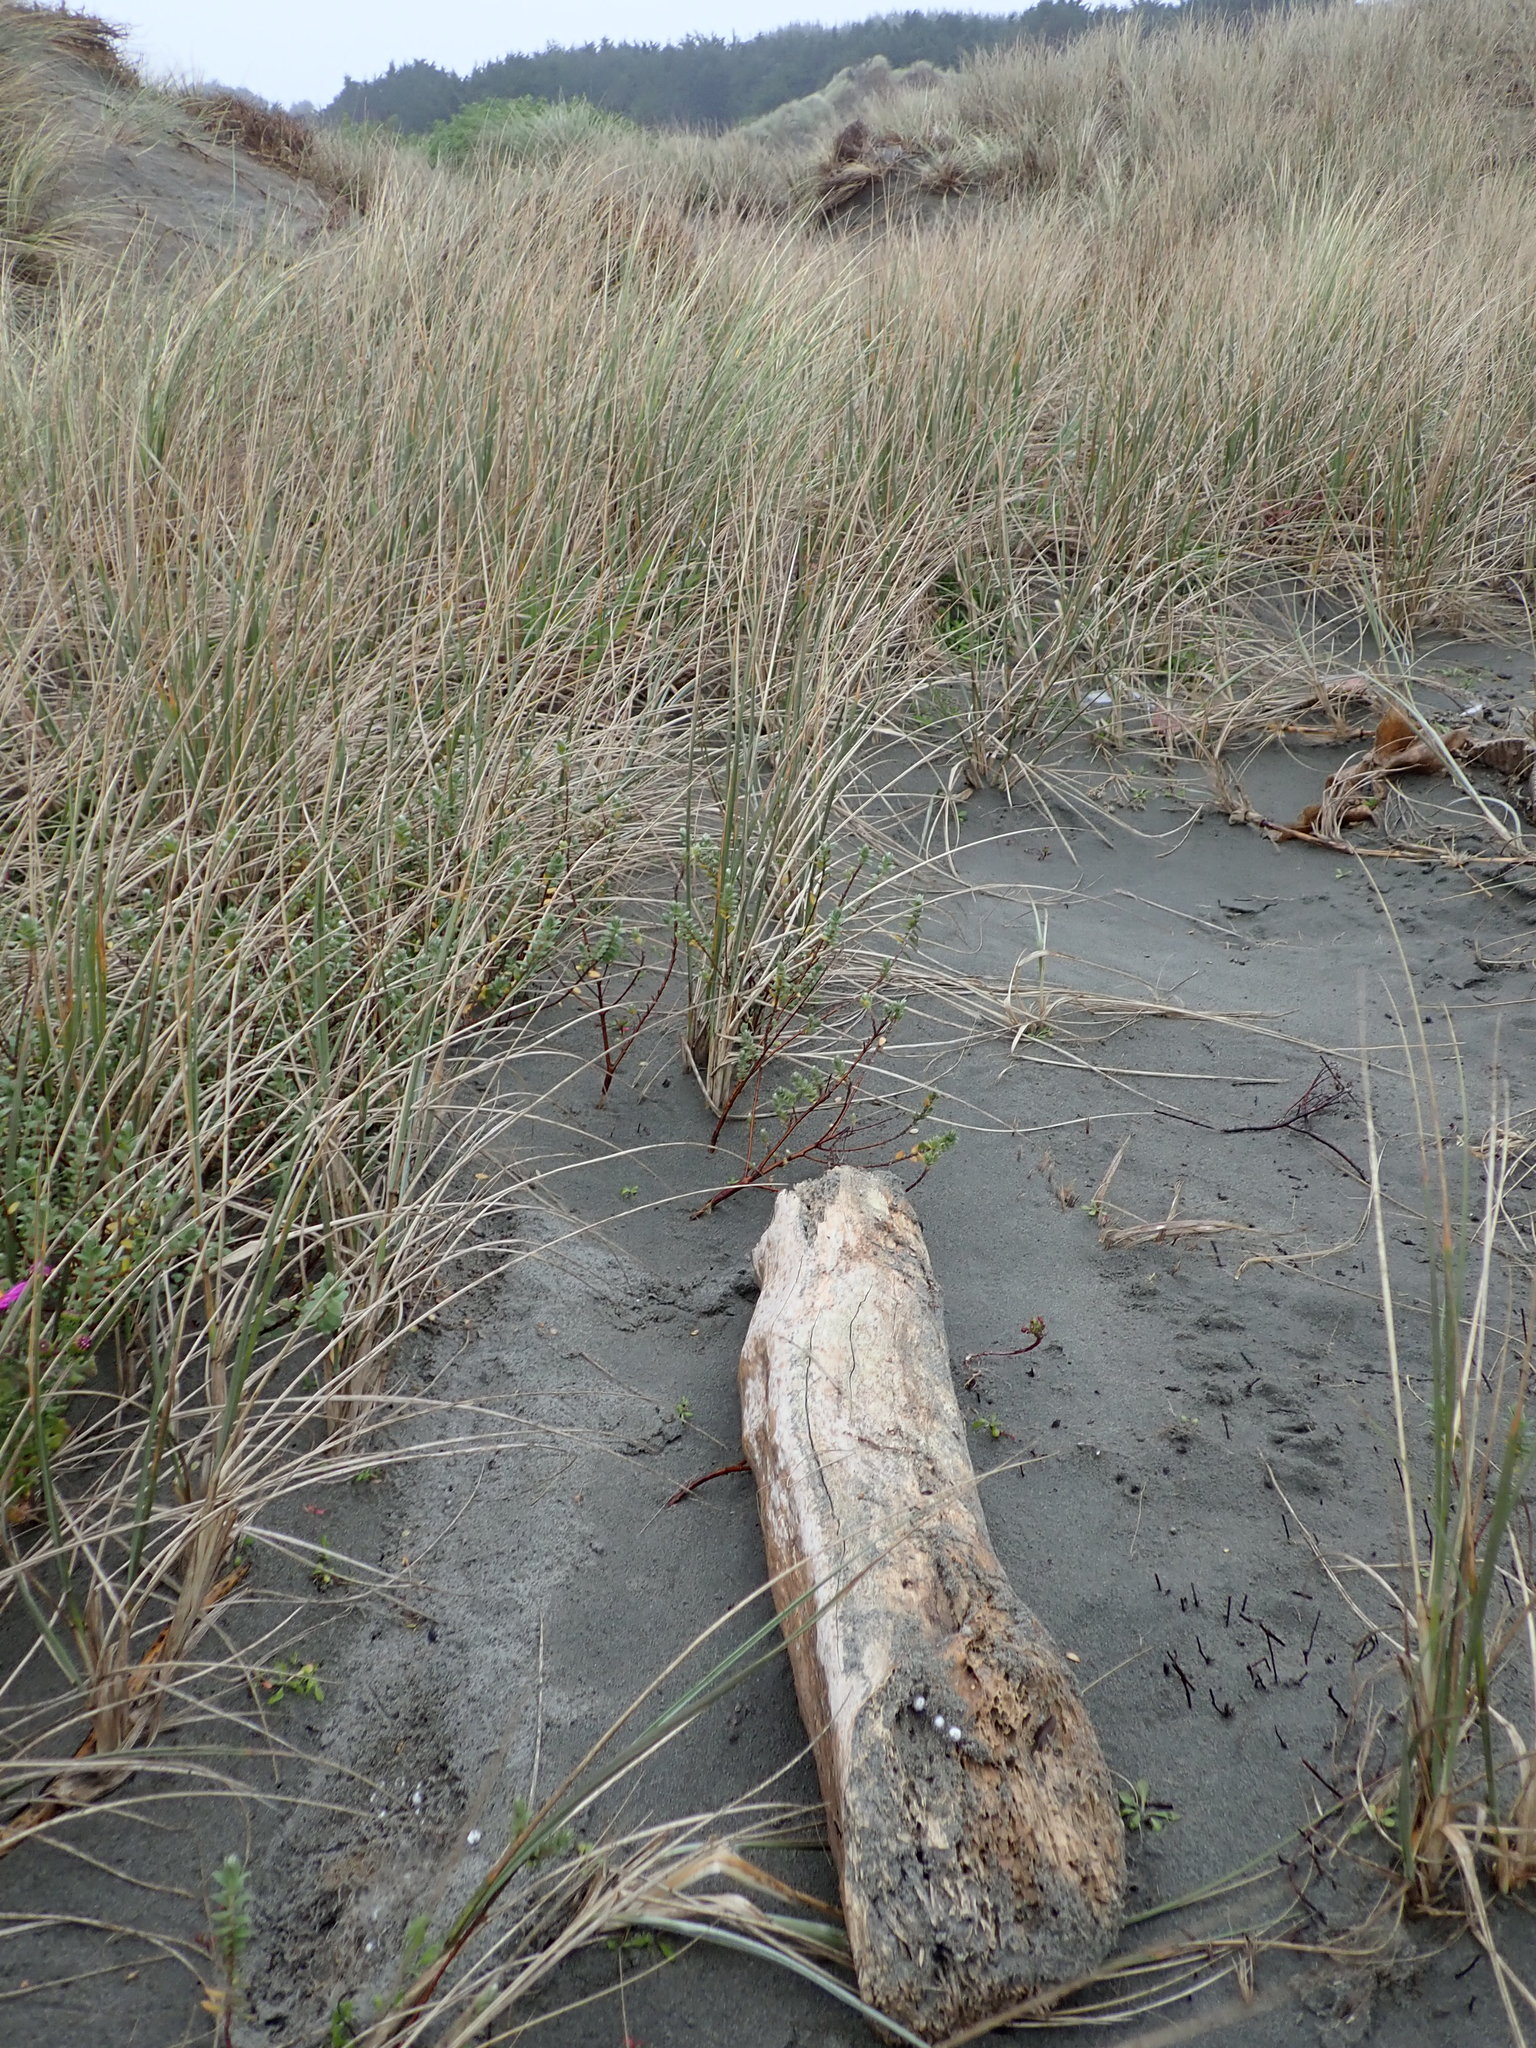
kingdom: Animalia
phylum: Platyhelminthes
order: Tricladida
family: Geoplanidae
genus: Newzealandia
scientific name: Newzealandia graffii
